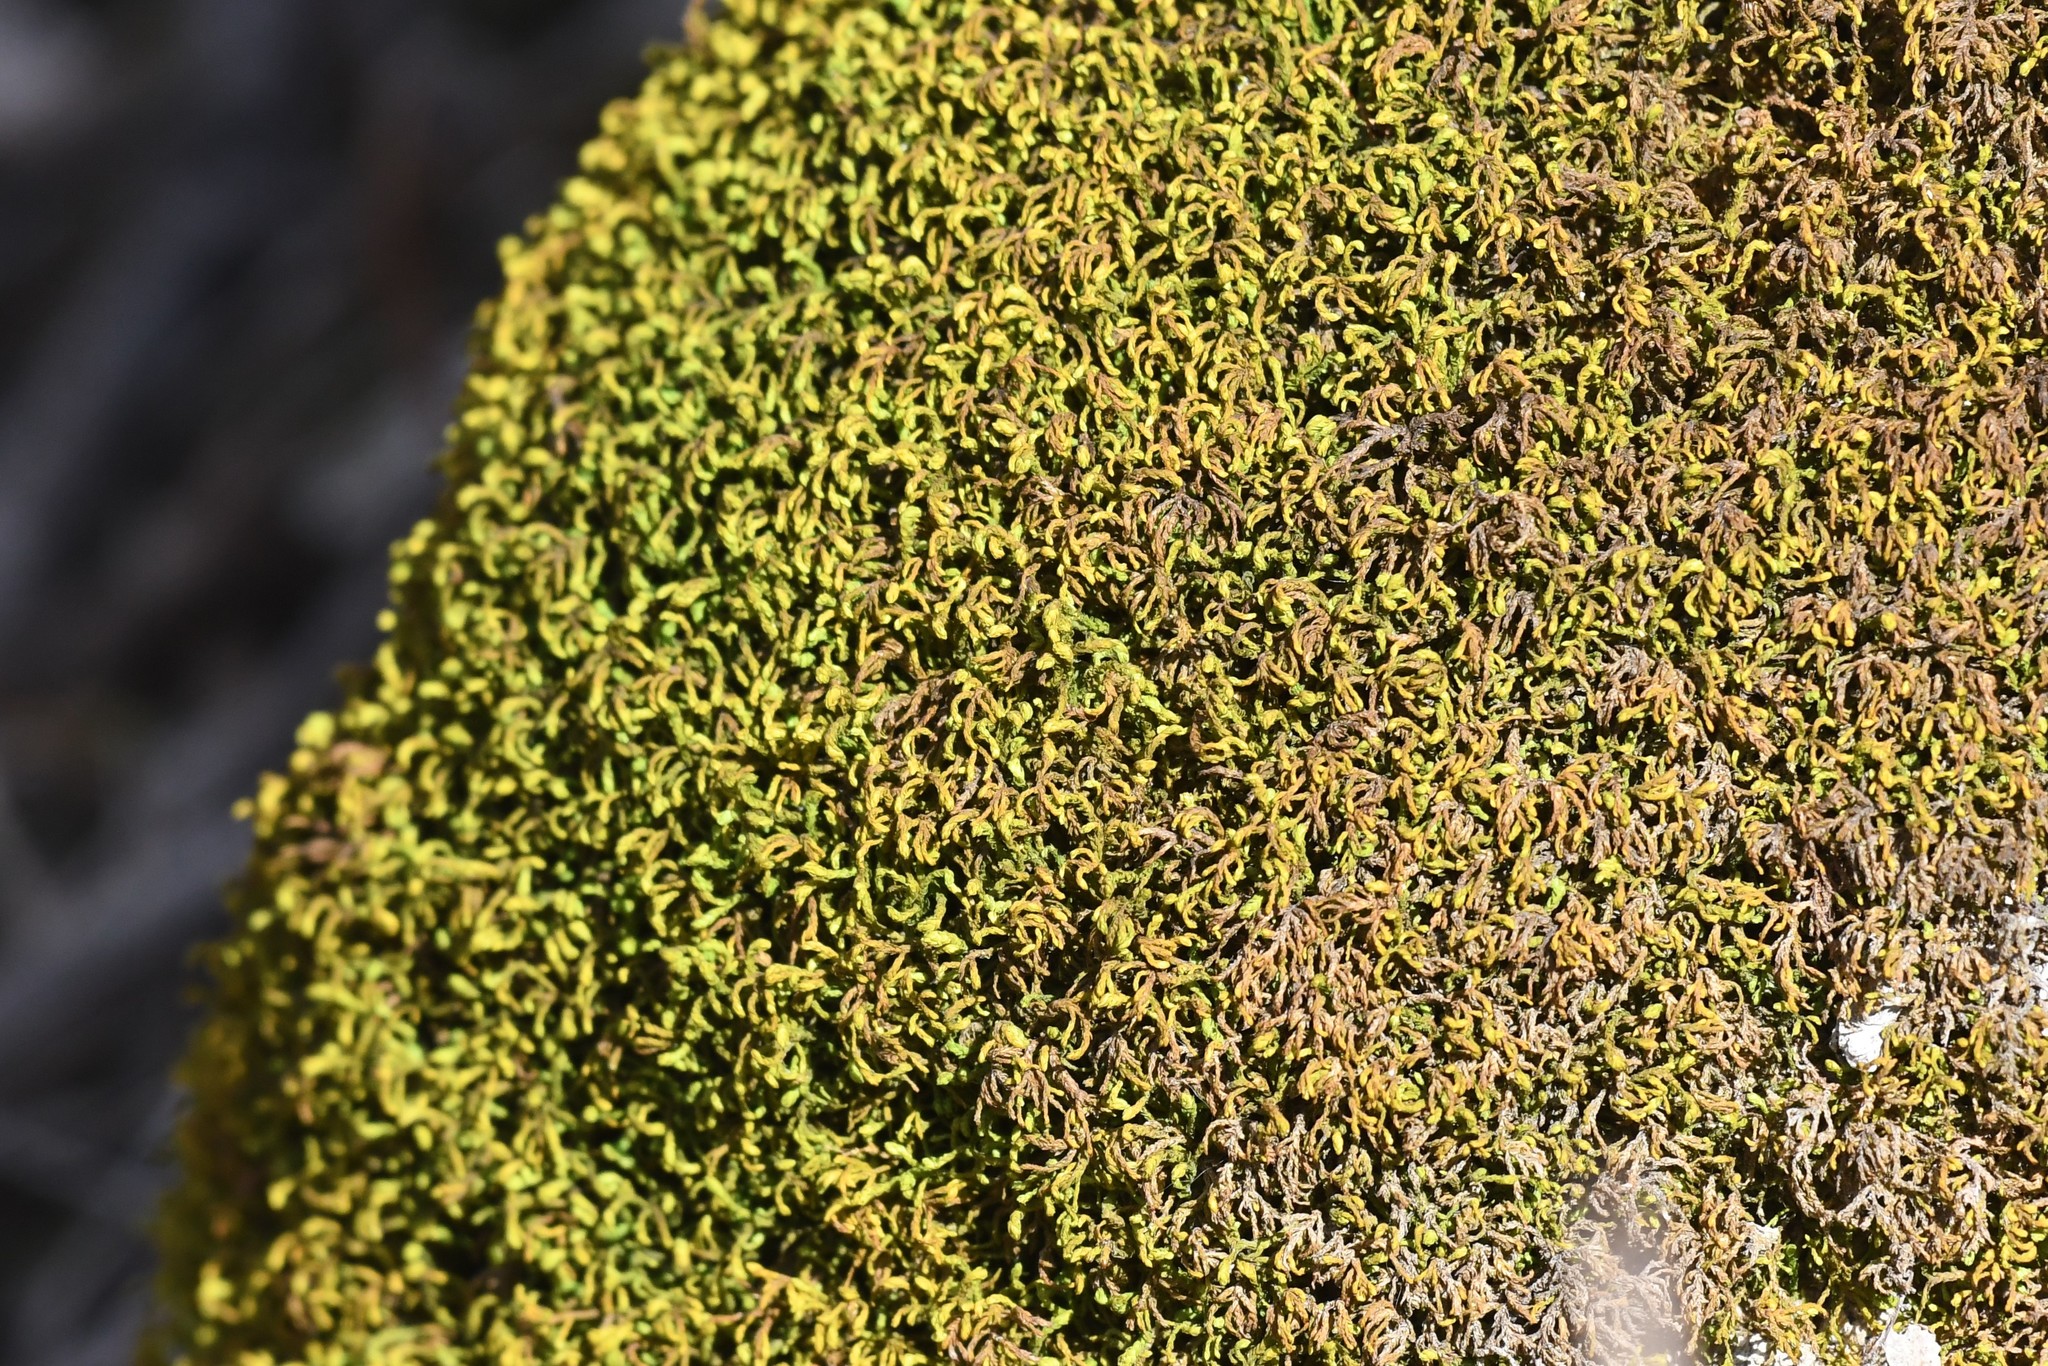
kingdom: Plantae
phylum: Bryophyta
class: Bryopsida
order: Hypnales
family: Neckeraceae
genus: Pseudanomodon
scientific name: Pseudanomodon attenuatus
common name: Tree-skirt moss
